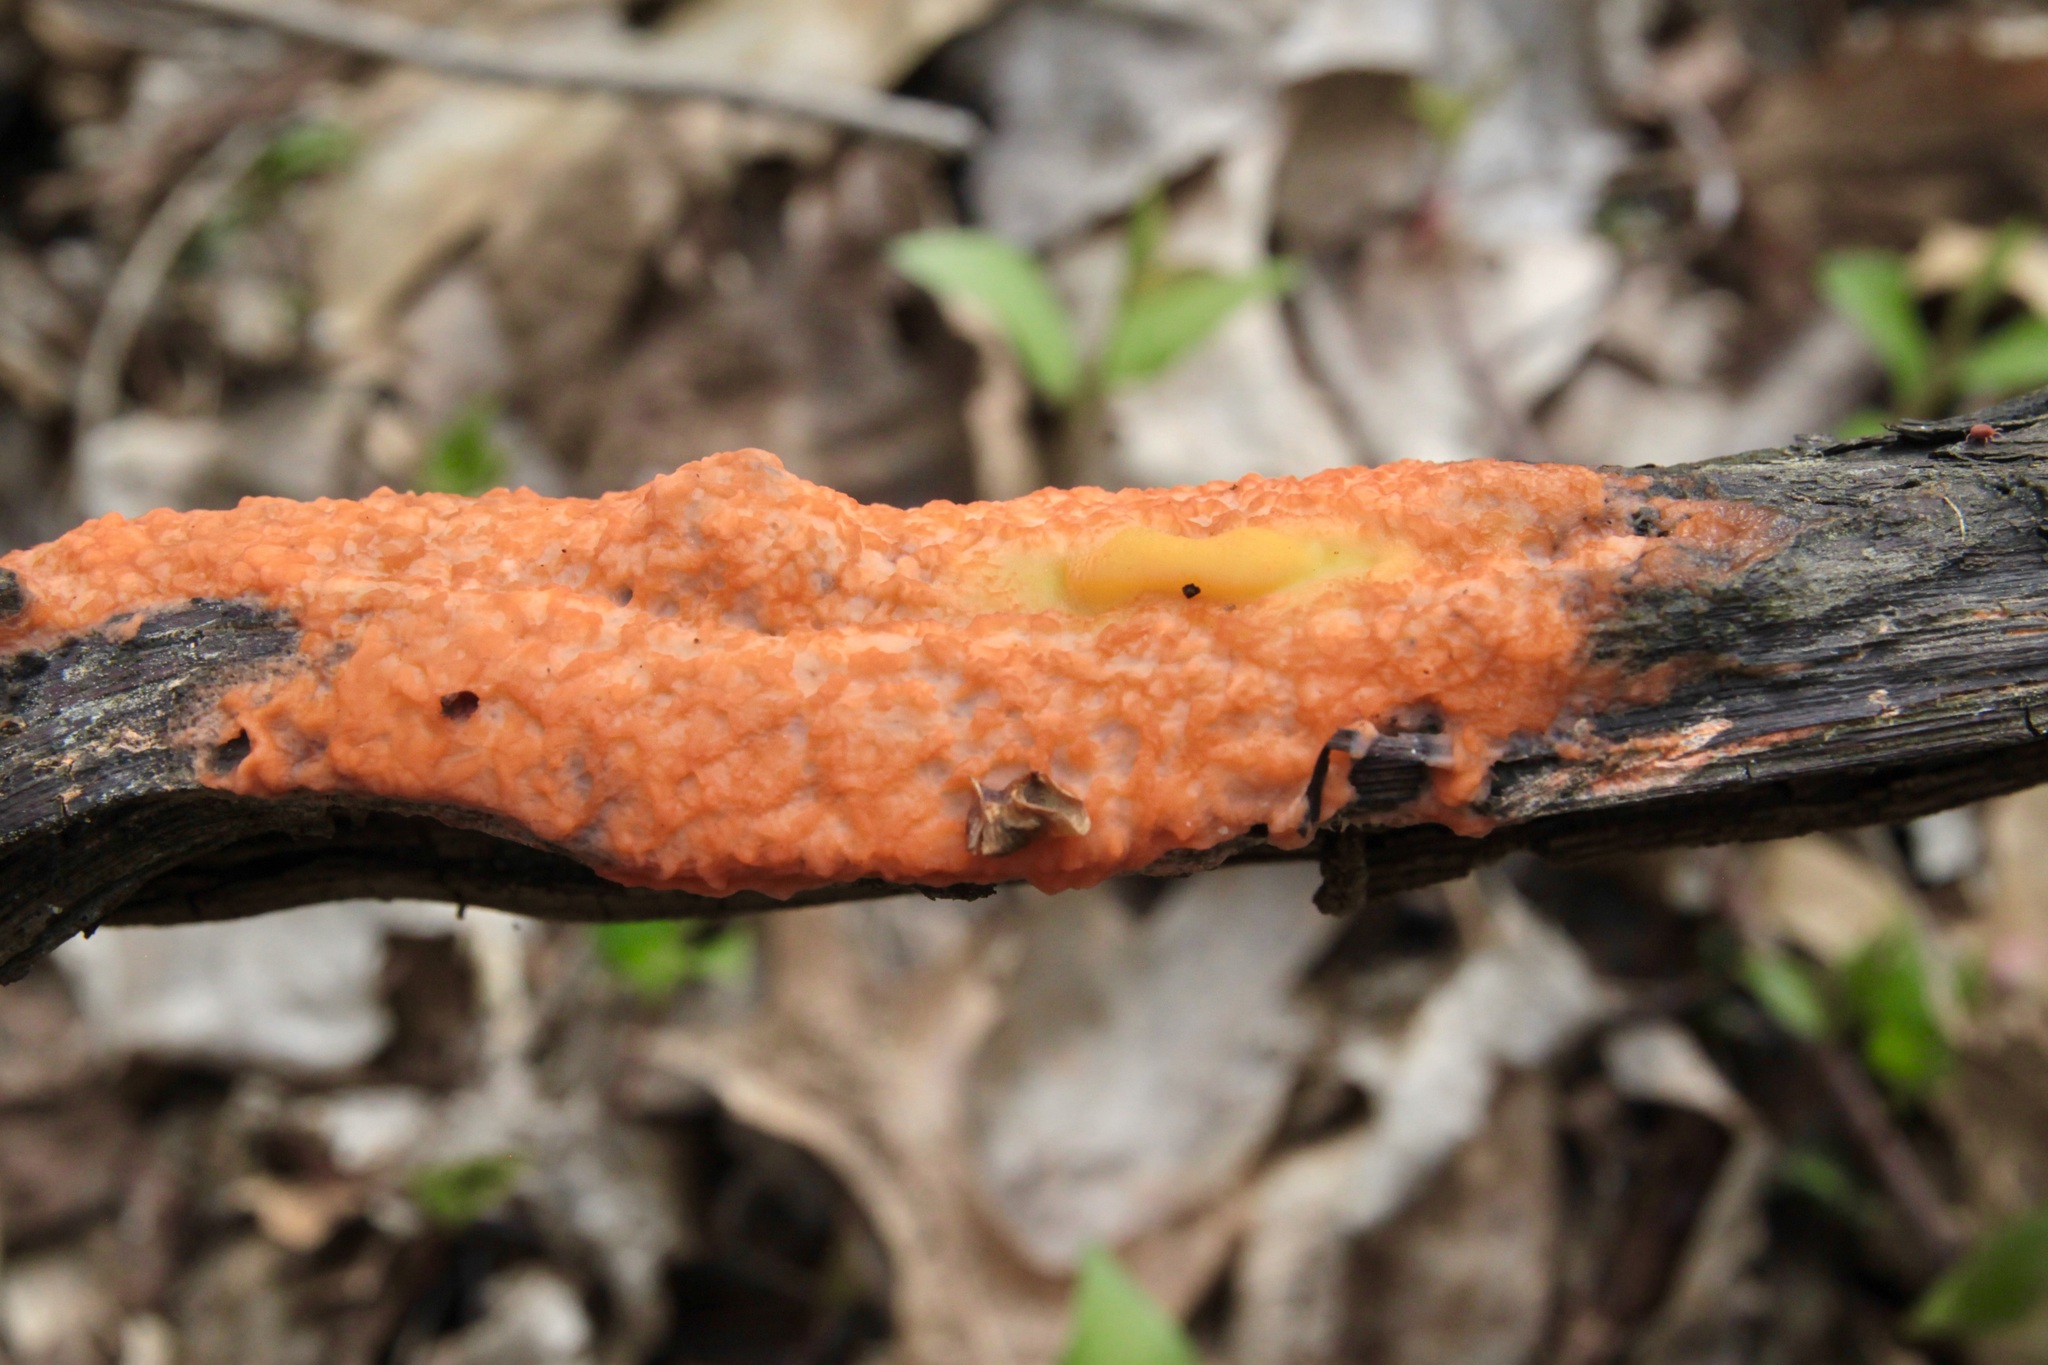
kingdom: Fungi
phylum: Ascomycota
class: Sordariomycetes
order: Hypocreales
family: Nectriaceae
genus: Fusicolla
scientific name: Fusicolla merismoides
